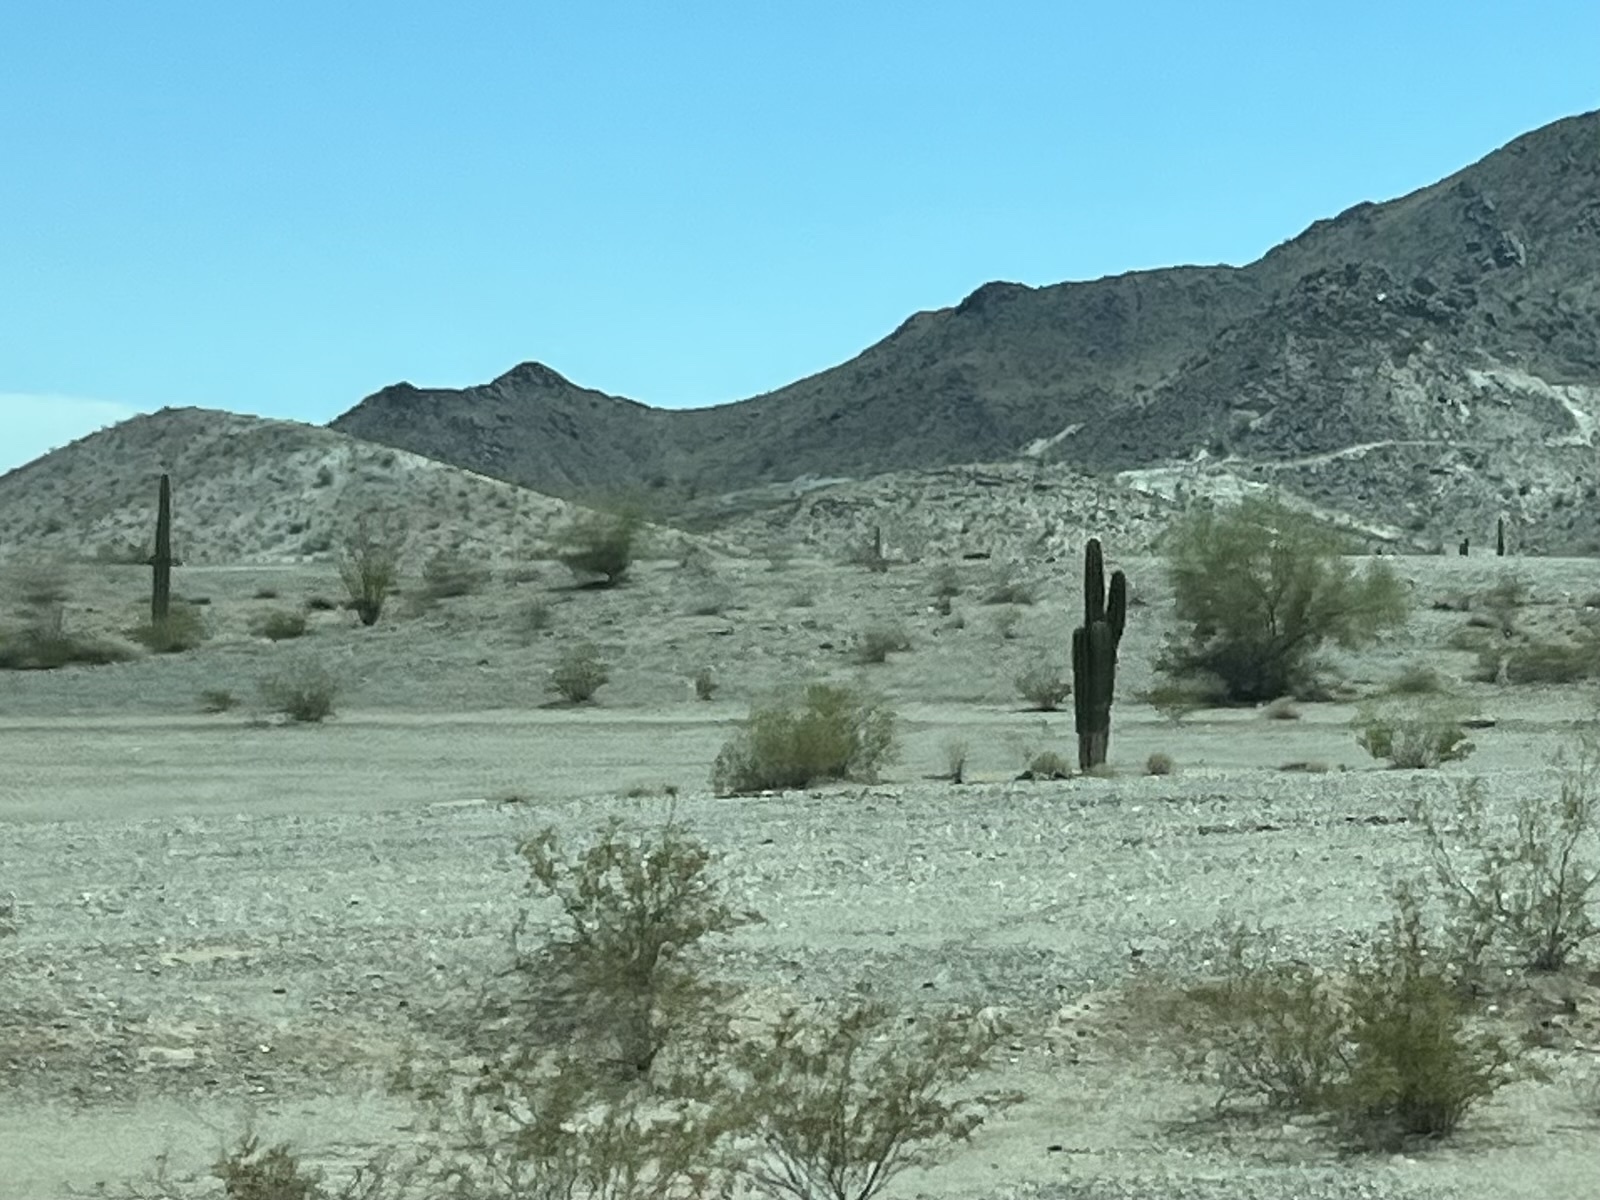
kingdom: Plantae
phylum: Tracheophyta
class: Magnoliopsida
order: Caryophyllales
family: Cactaceae
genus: Carnegiea
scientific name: Carnegiea gigantea
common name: Saguaro
